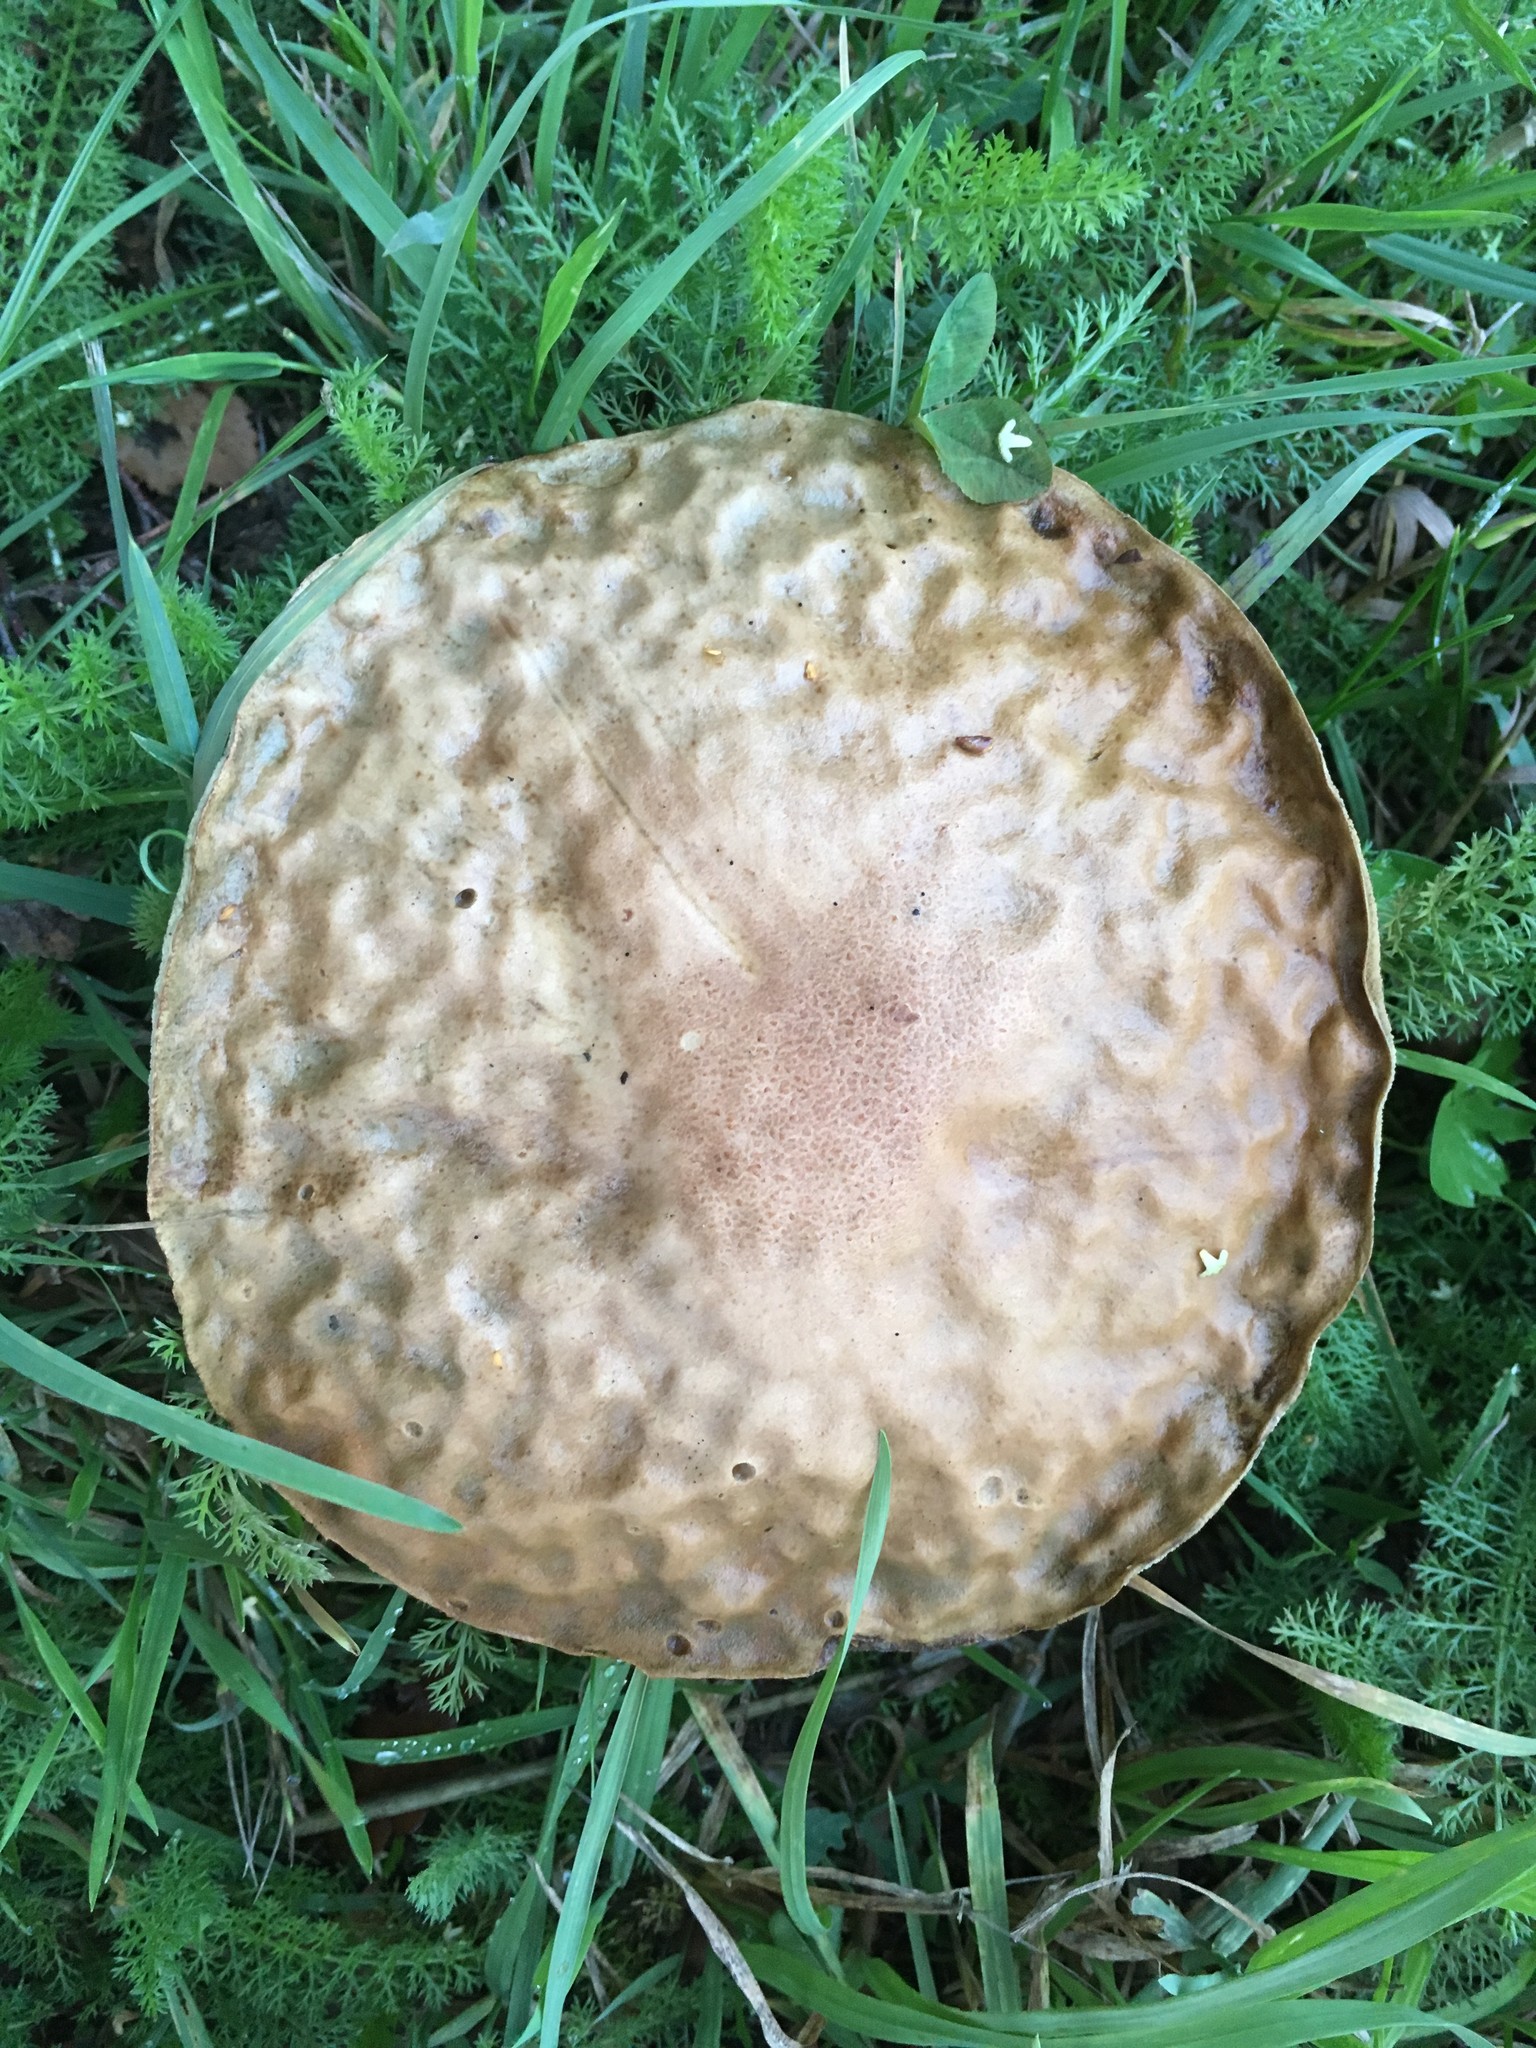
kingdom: Fungi
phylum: Basidiomycota
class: Agaricomycetes
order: Boletales
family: Boletaceae
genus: Leccinum
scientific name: Leccinum scabrum
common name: Blushing bolete
